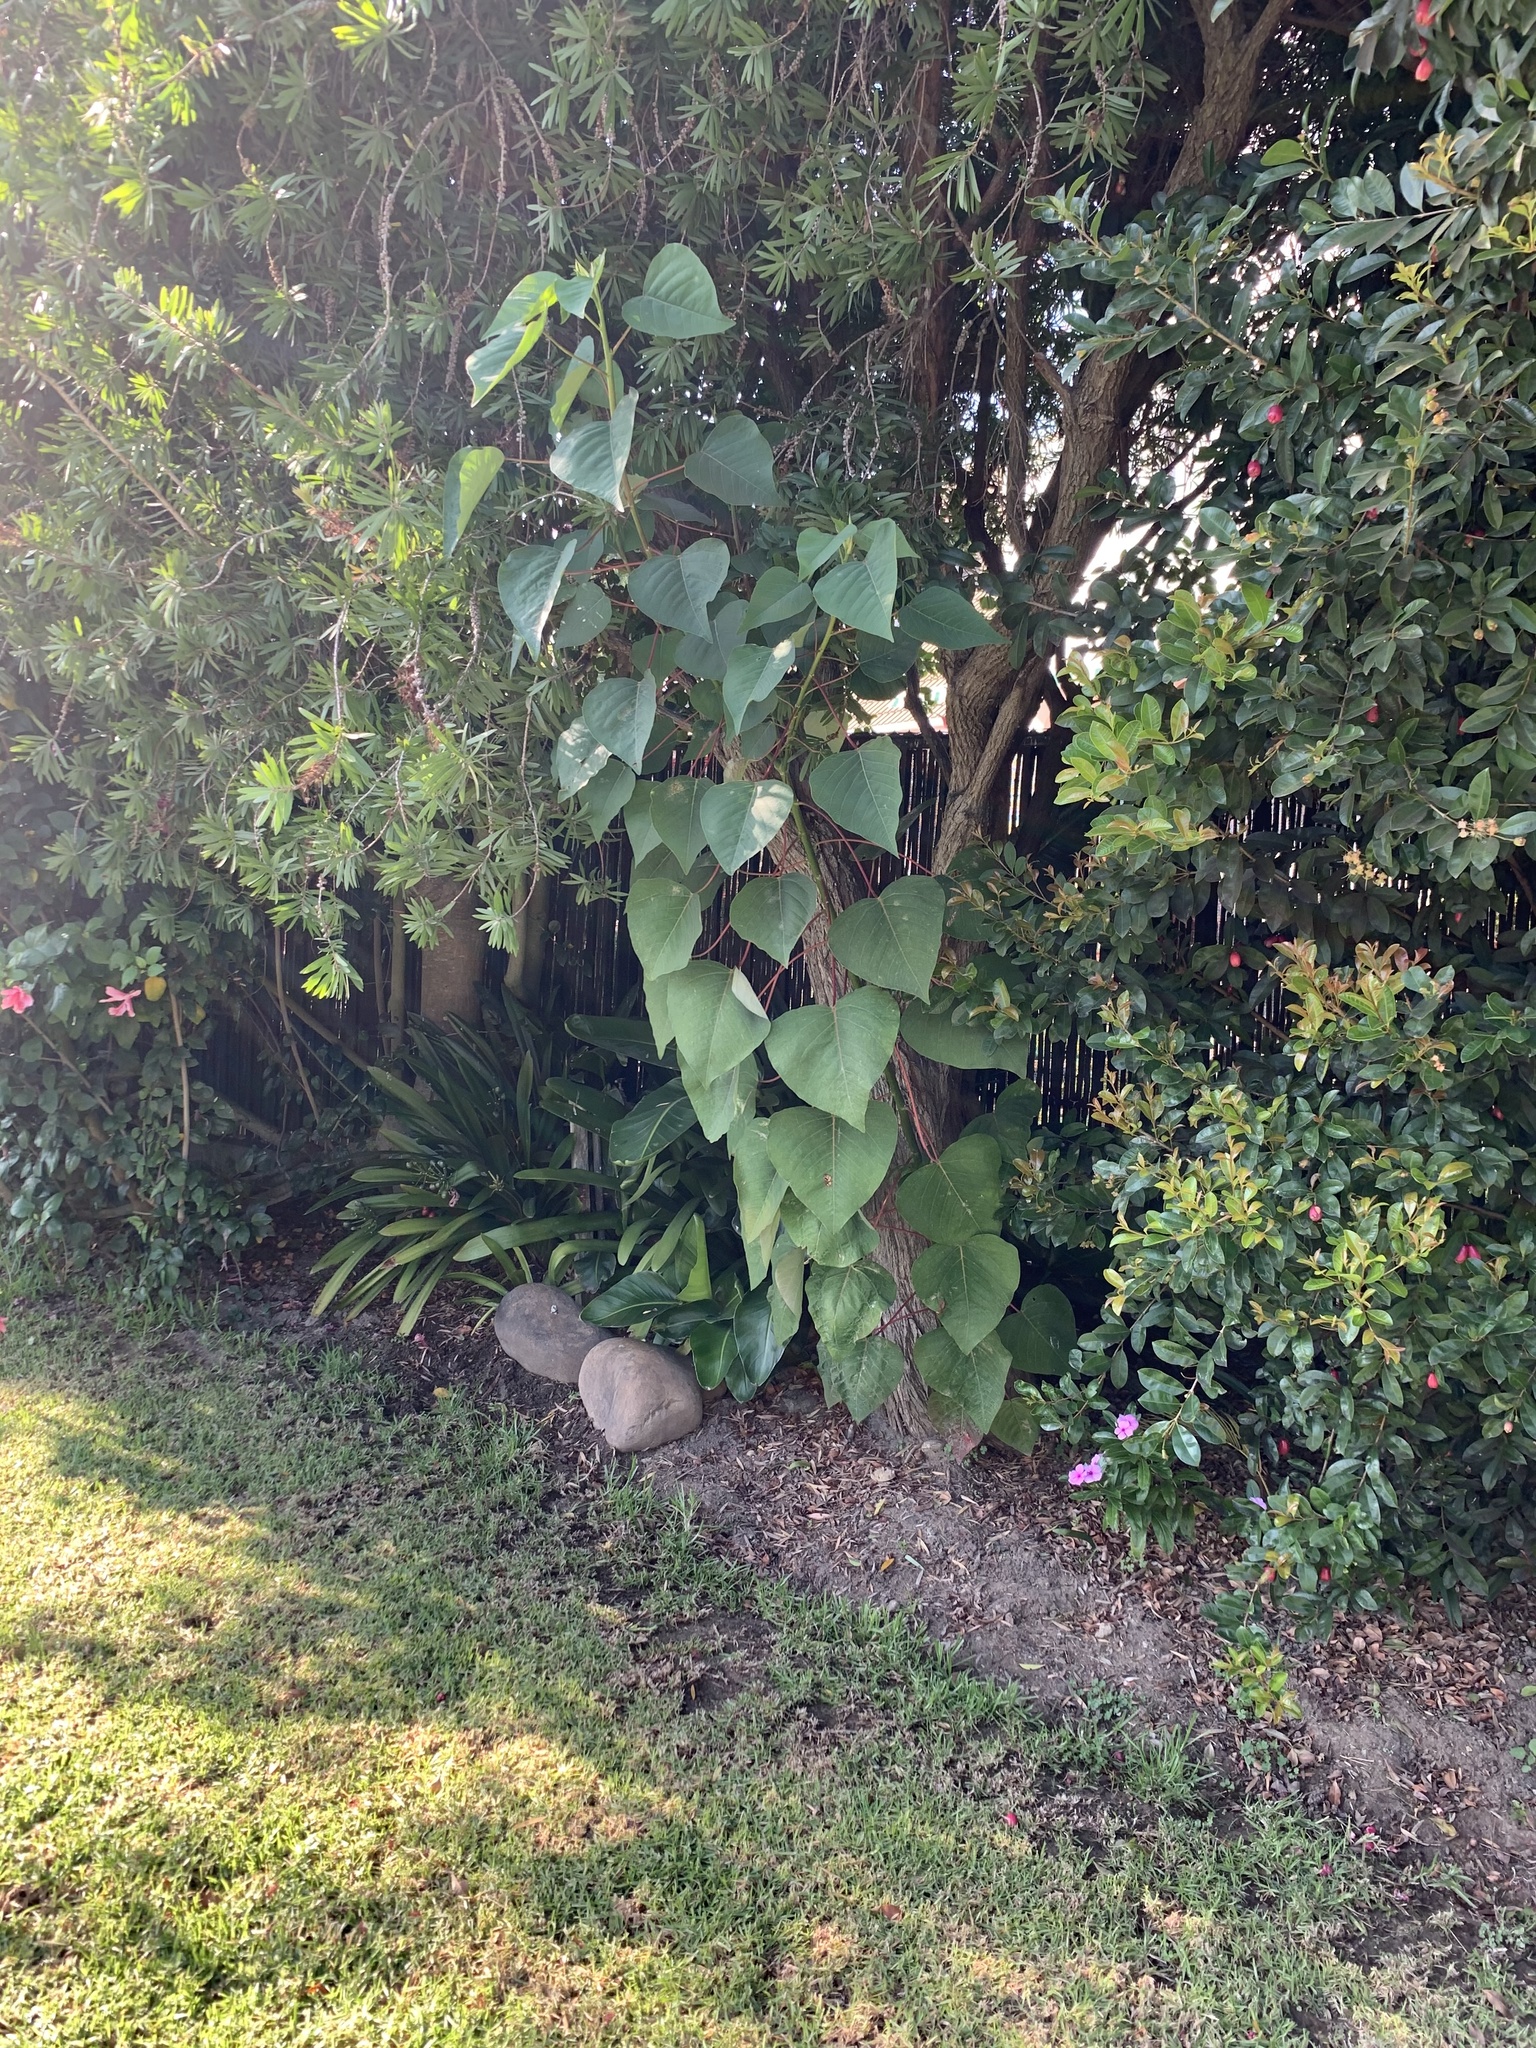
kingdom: Plantae
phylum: Tracheophyta
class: Magnoliopsida
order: Malpighiales
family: Euphorbiaceae
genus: Homalanthus
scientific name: Homalanthus populifolius
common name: Queensland poplar
